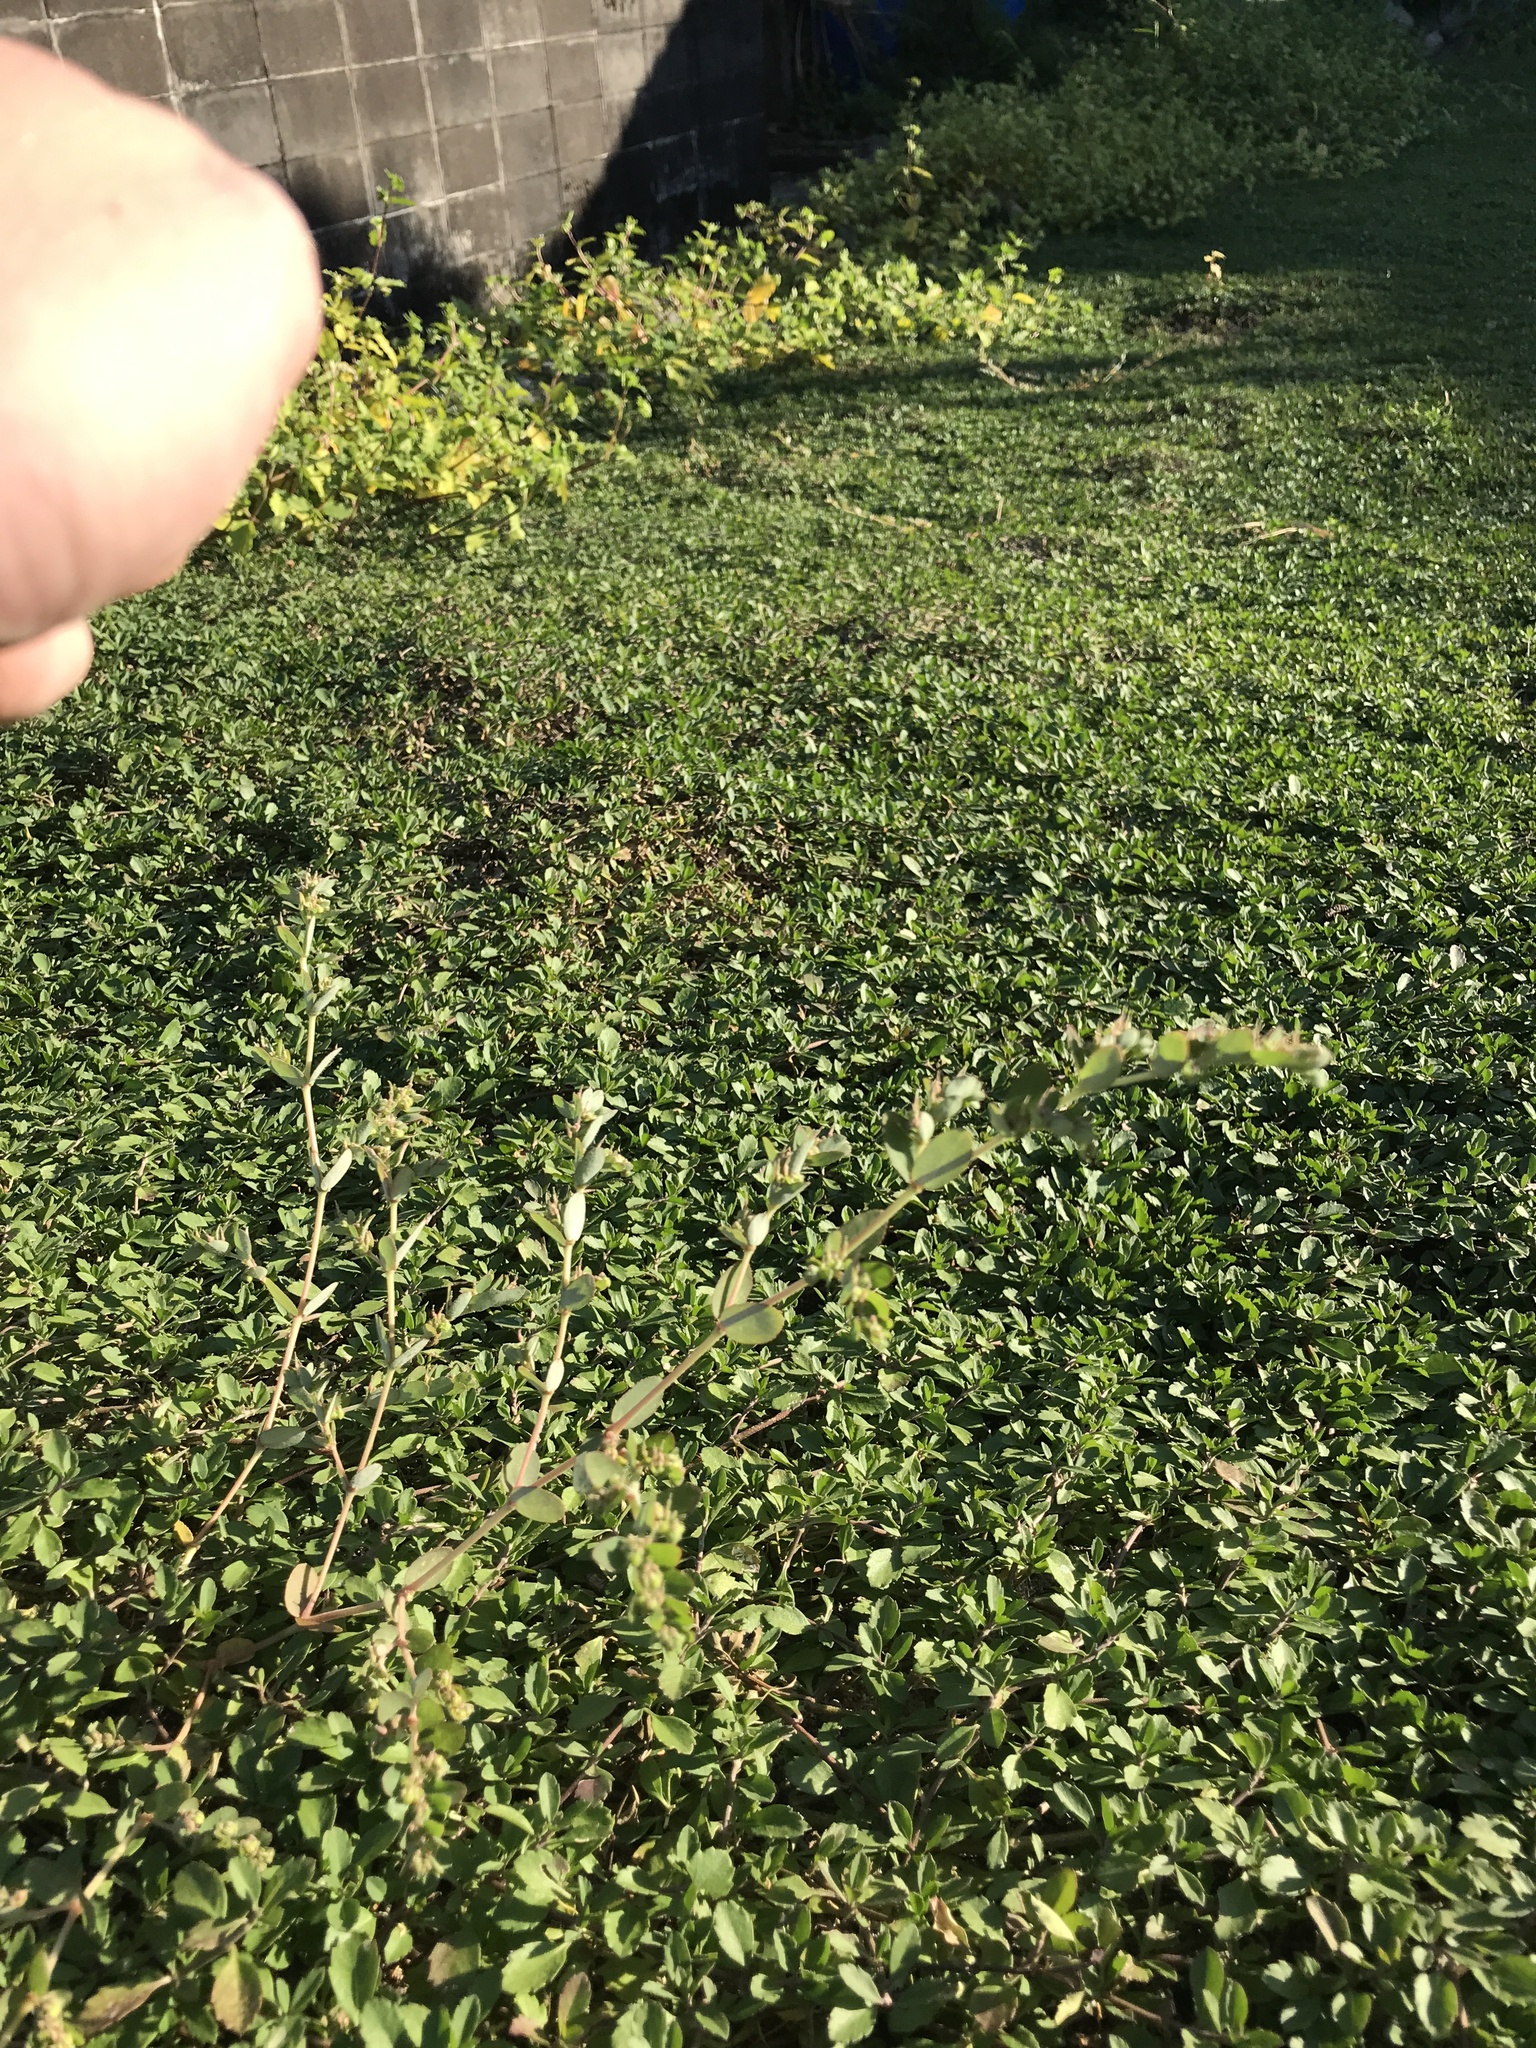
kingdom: Plantae
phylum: Tracheophyta
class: Magnoliopsida
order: Malpighiales
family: Euphorbiaceae
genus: Euphorbia
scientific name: Euphorbia prostrata
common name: Prostrate sandmat
